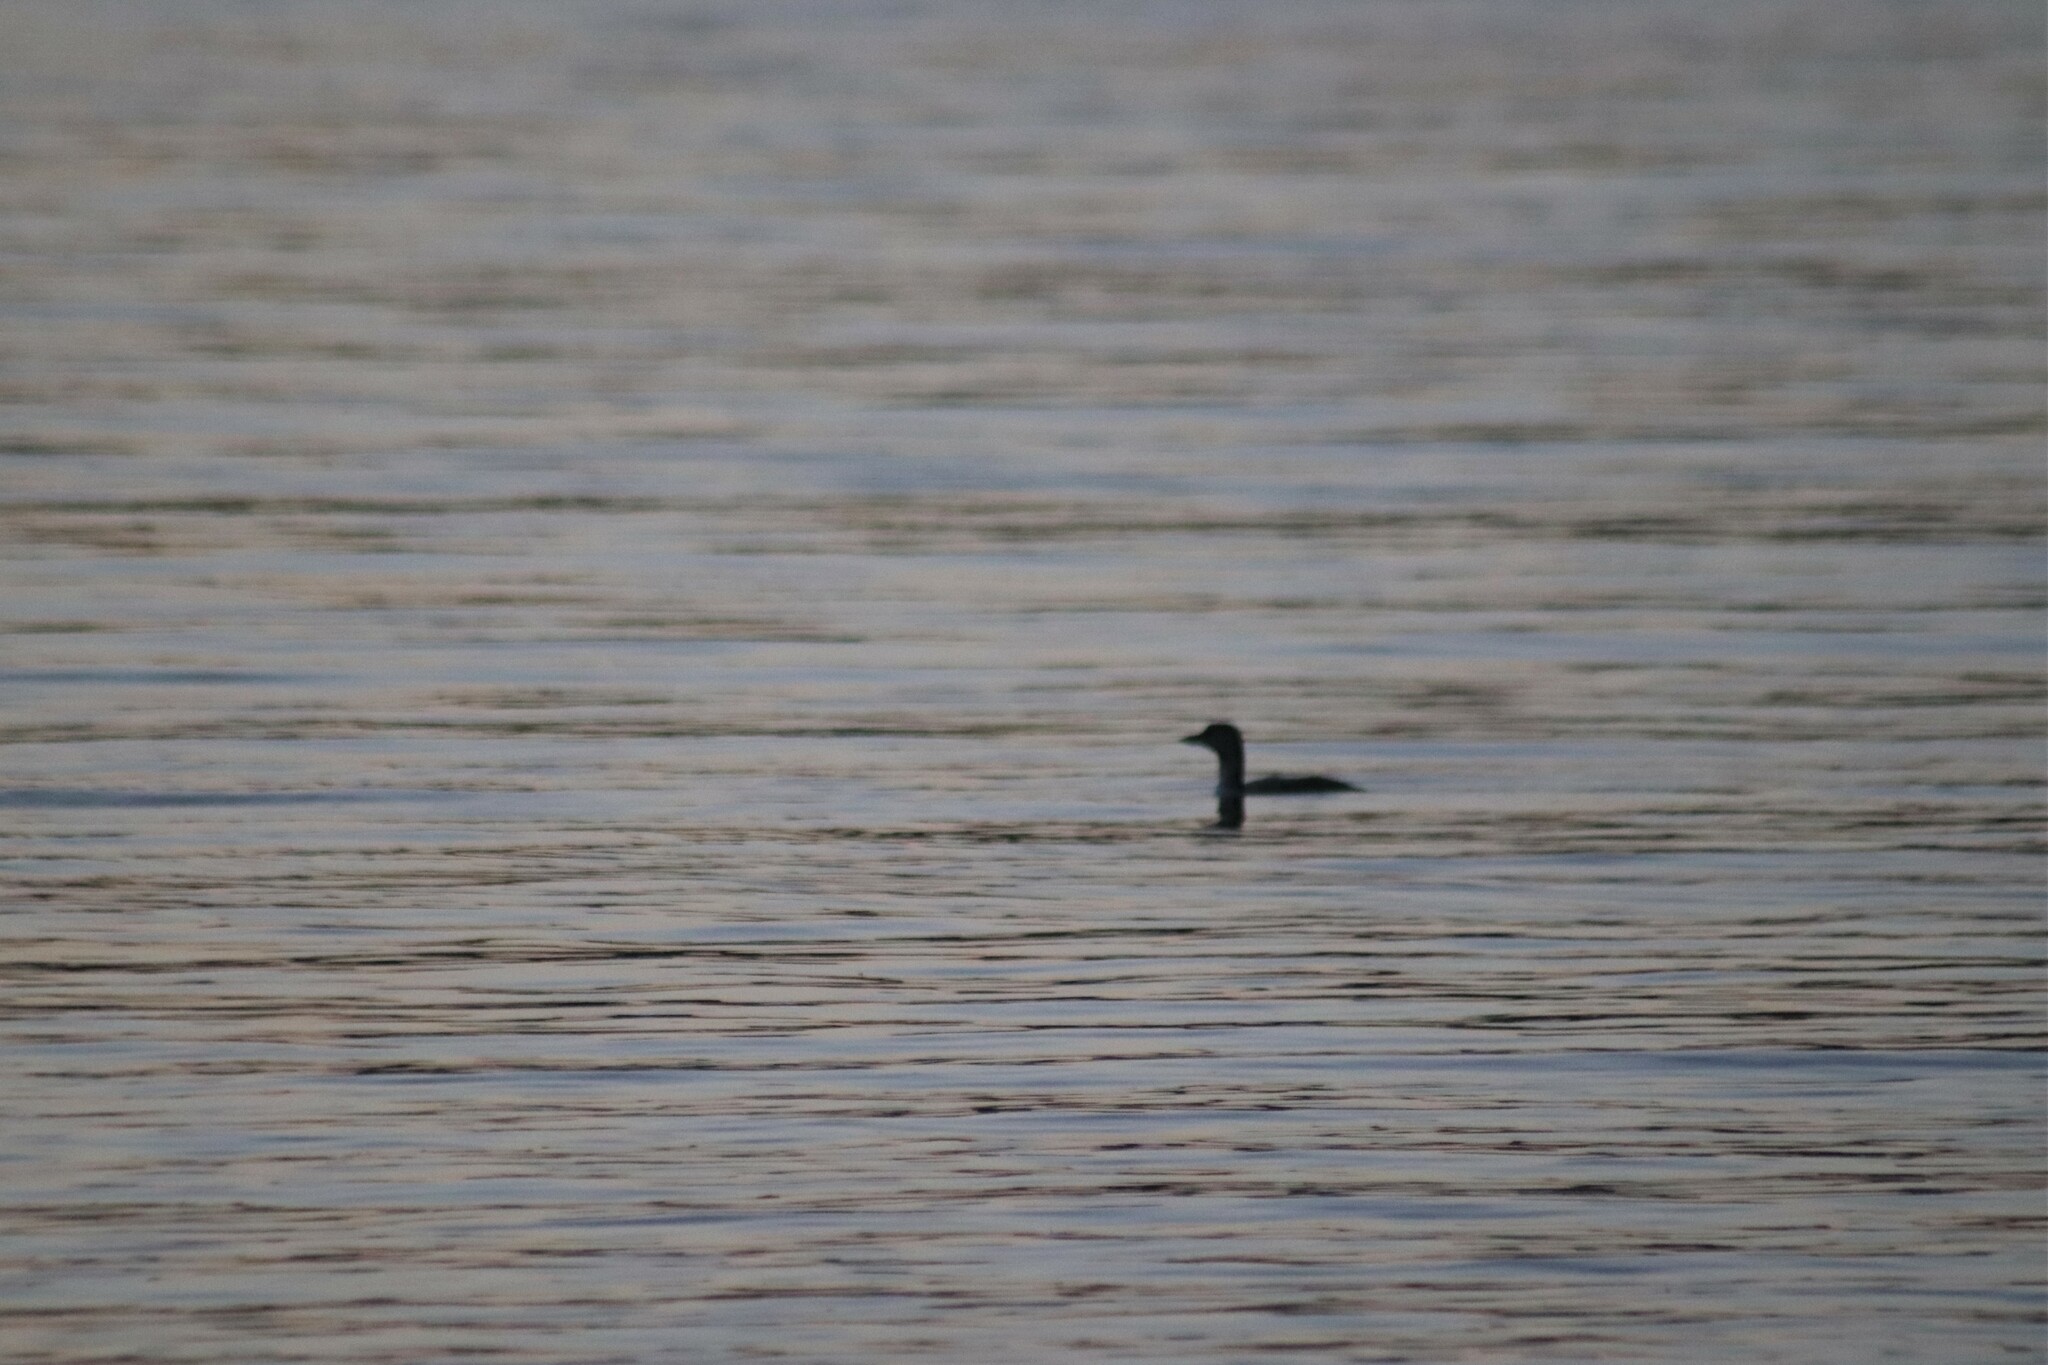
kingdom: Animalia
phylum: Chordata
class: Aves
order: Gaviiformes
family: Gaviidae
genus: Gavia
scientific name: Gavia immer
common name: Common loon
